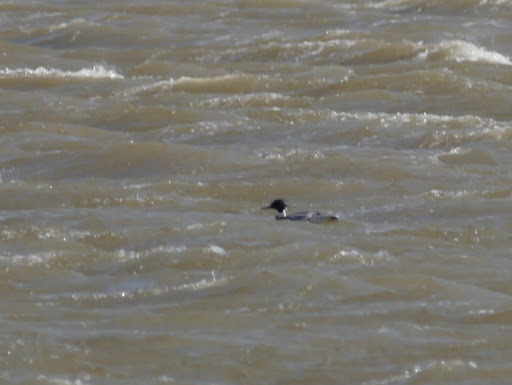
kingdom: Animalia
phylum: Chordata
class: Aves
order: Anseriformes
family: Anatidae
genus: Mergus
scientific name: Mergus serrator
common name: Red-breasted merganser
